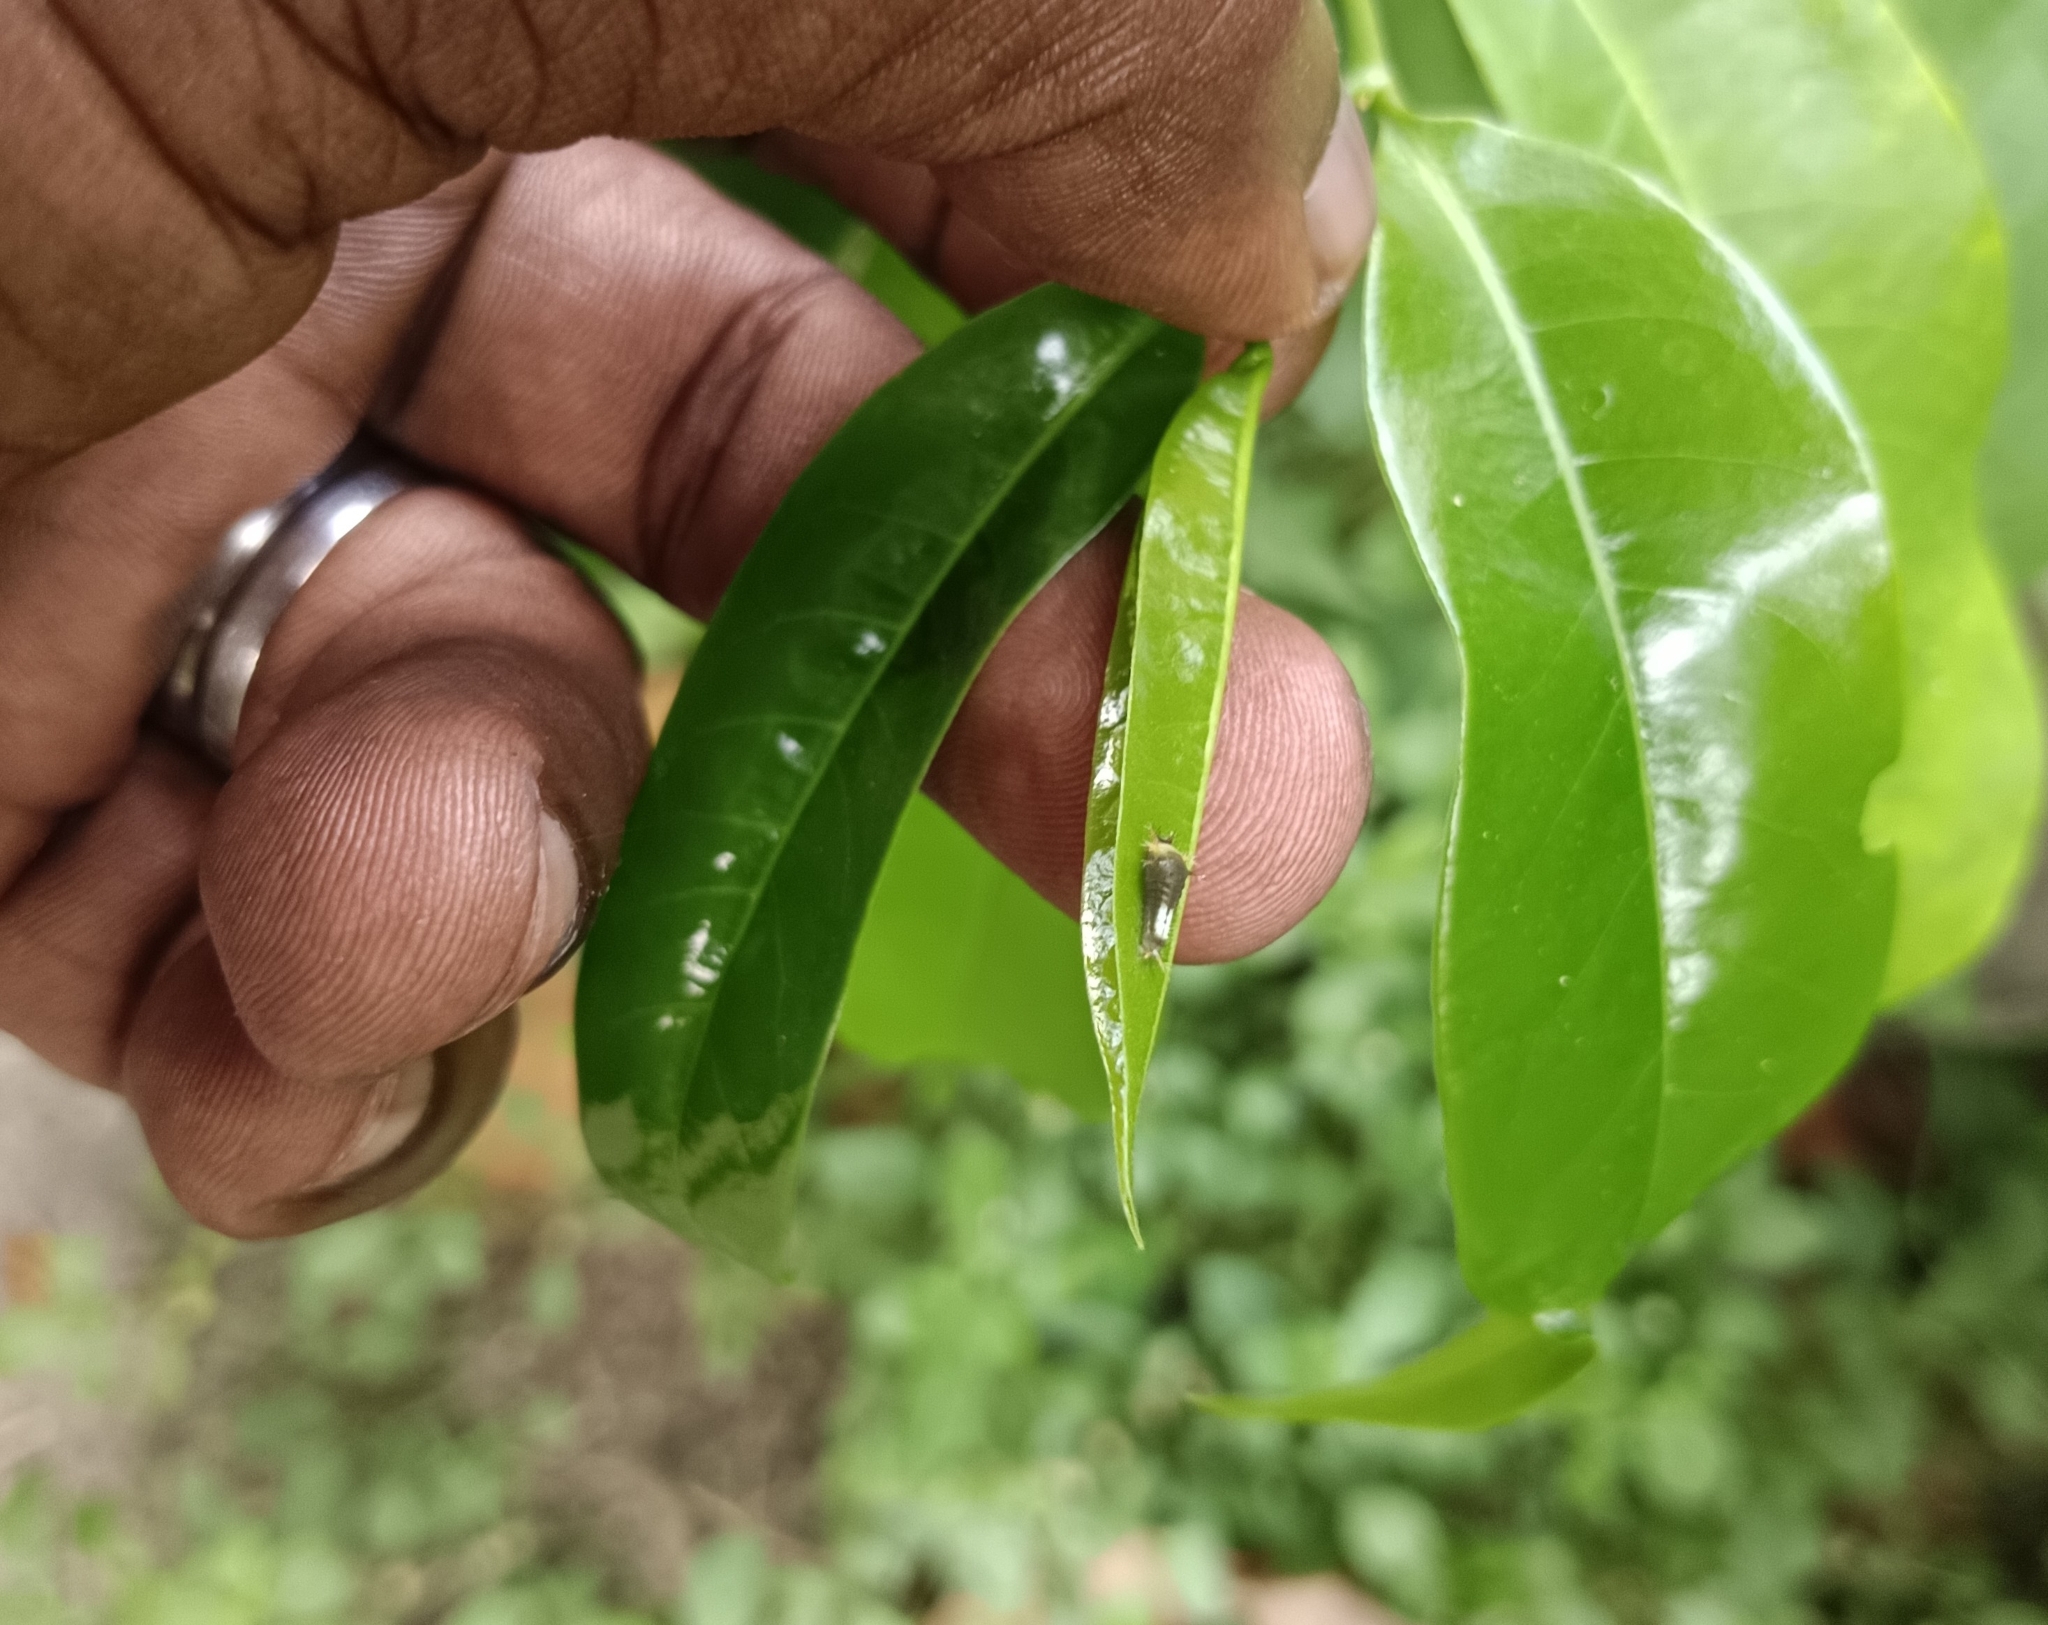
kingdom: Animalia
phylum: Arthropoda
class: Insecta
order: Lepidoptera
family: Papilionidae
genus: Graphium
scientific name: Graphium agamemnon
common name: Tailed jay
